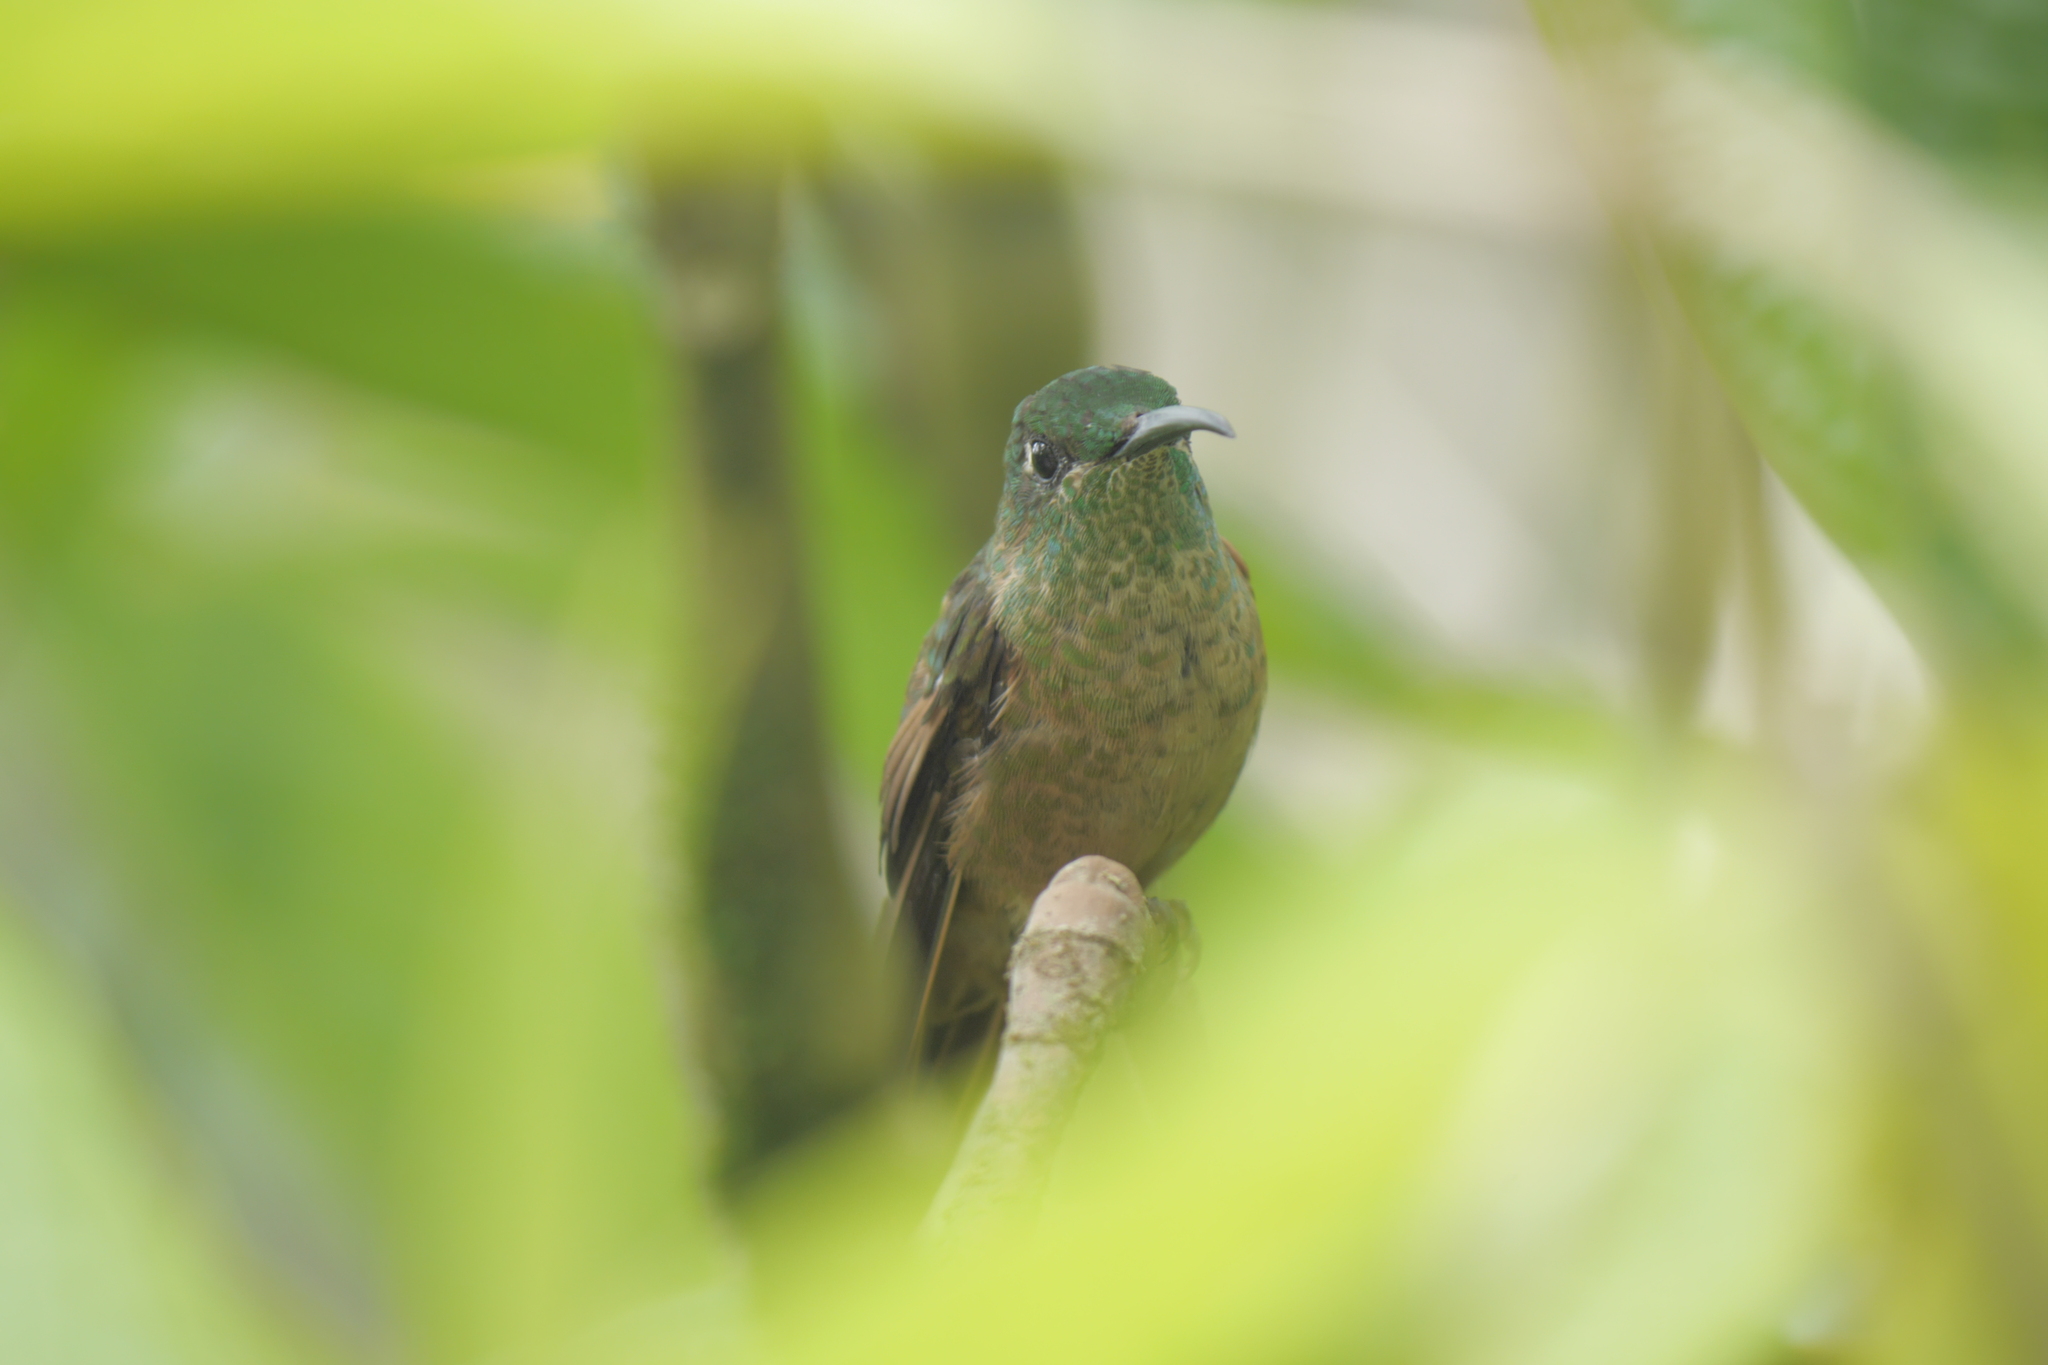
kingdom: Animalia
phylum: Chordata
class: Aves
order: Apodiformes
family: Trochilidae
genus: Heliodoxa
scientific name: Heliodoxa rubinoides
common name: Fawn-breasted brilliant
